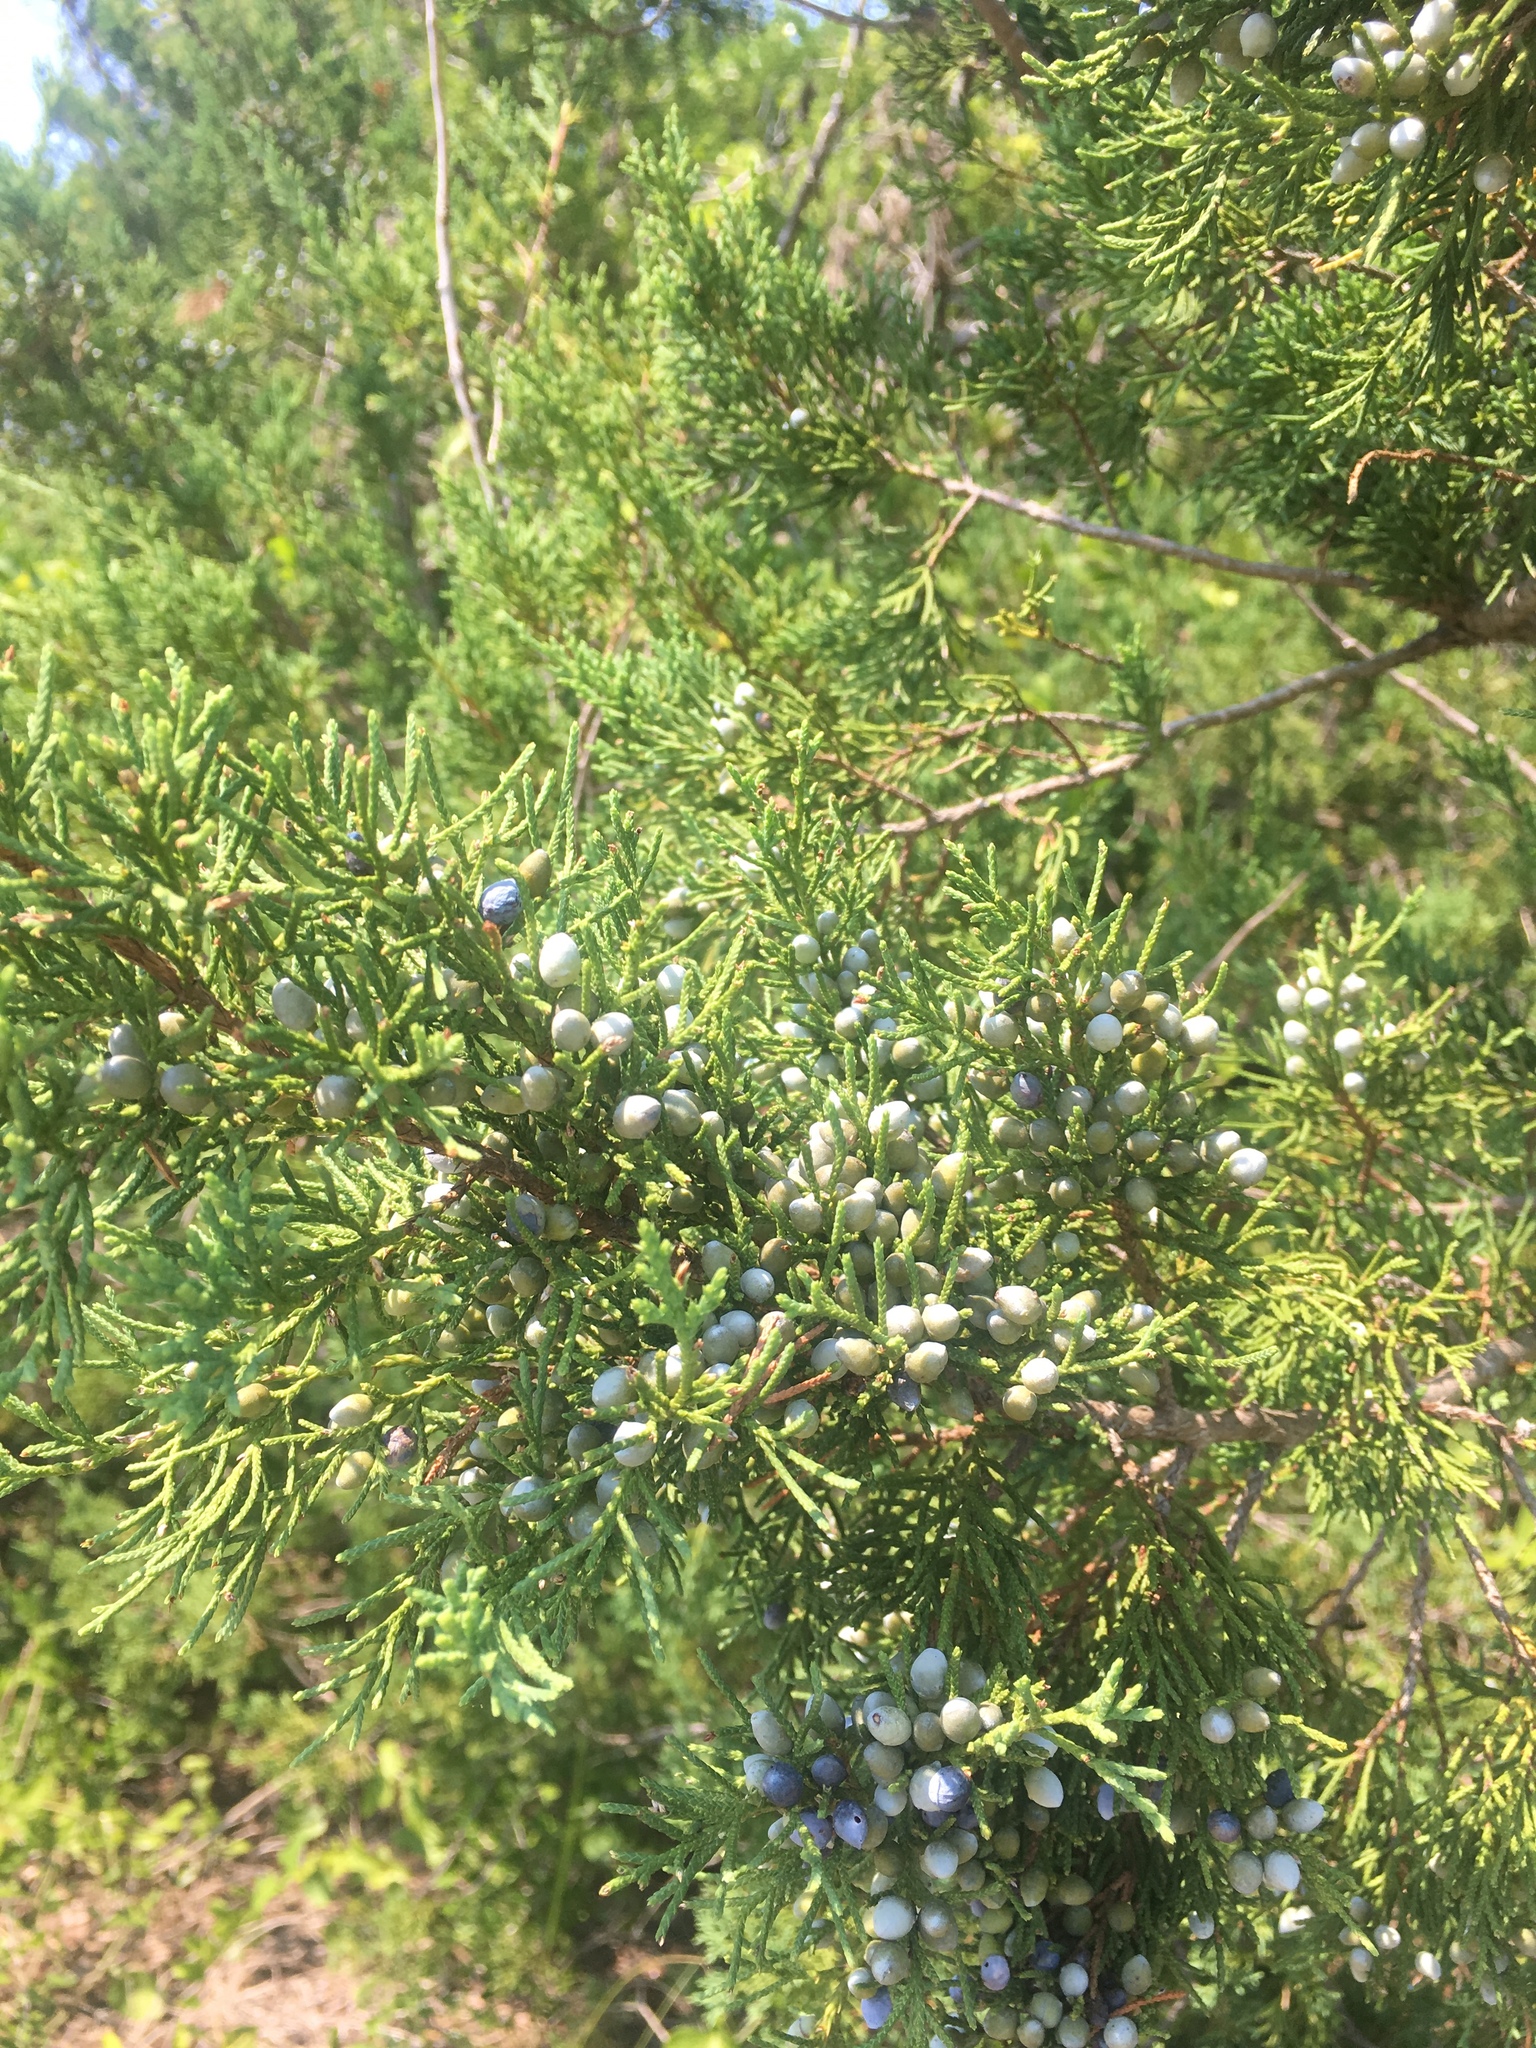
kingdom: Plantae
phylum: Tracheophyta
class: Pinopsida
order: Pinales
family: Cupressaceae
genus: Juniperus
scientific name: Juniperus virginiana
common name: Red juniper
